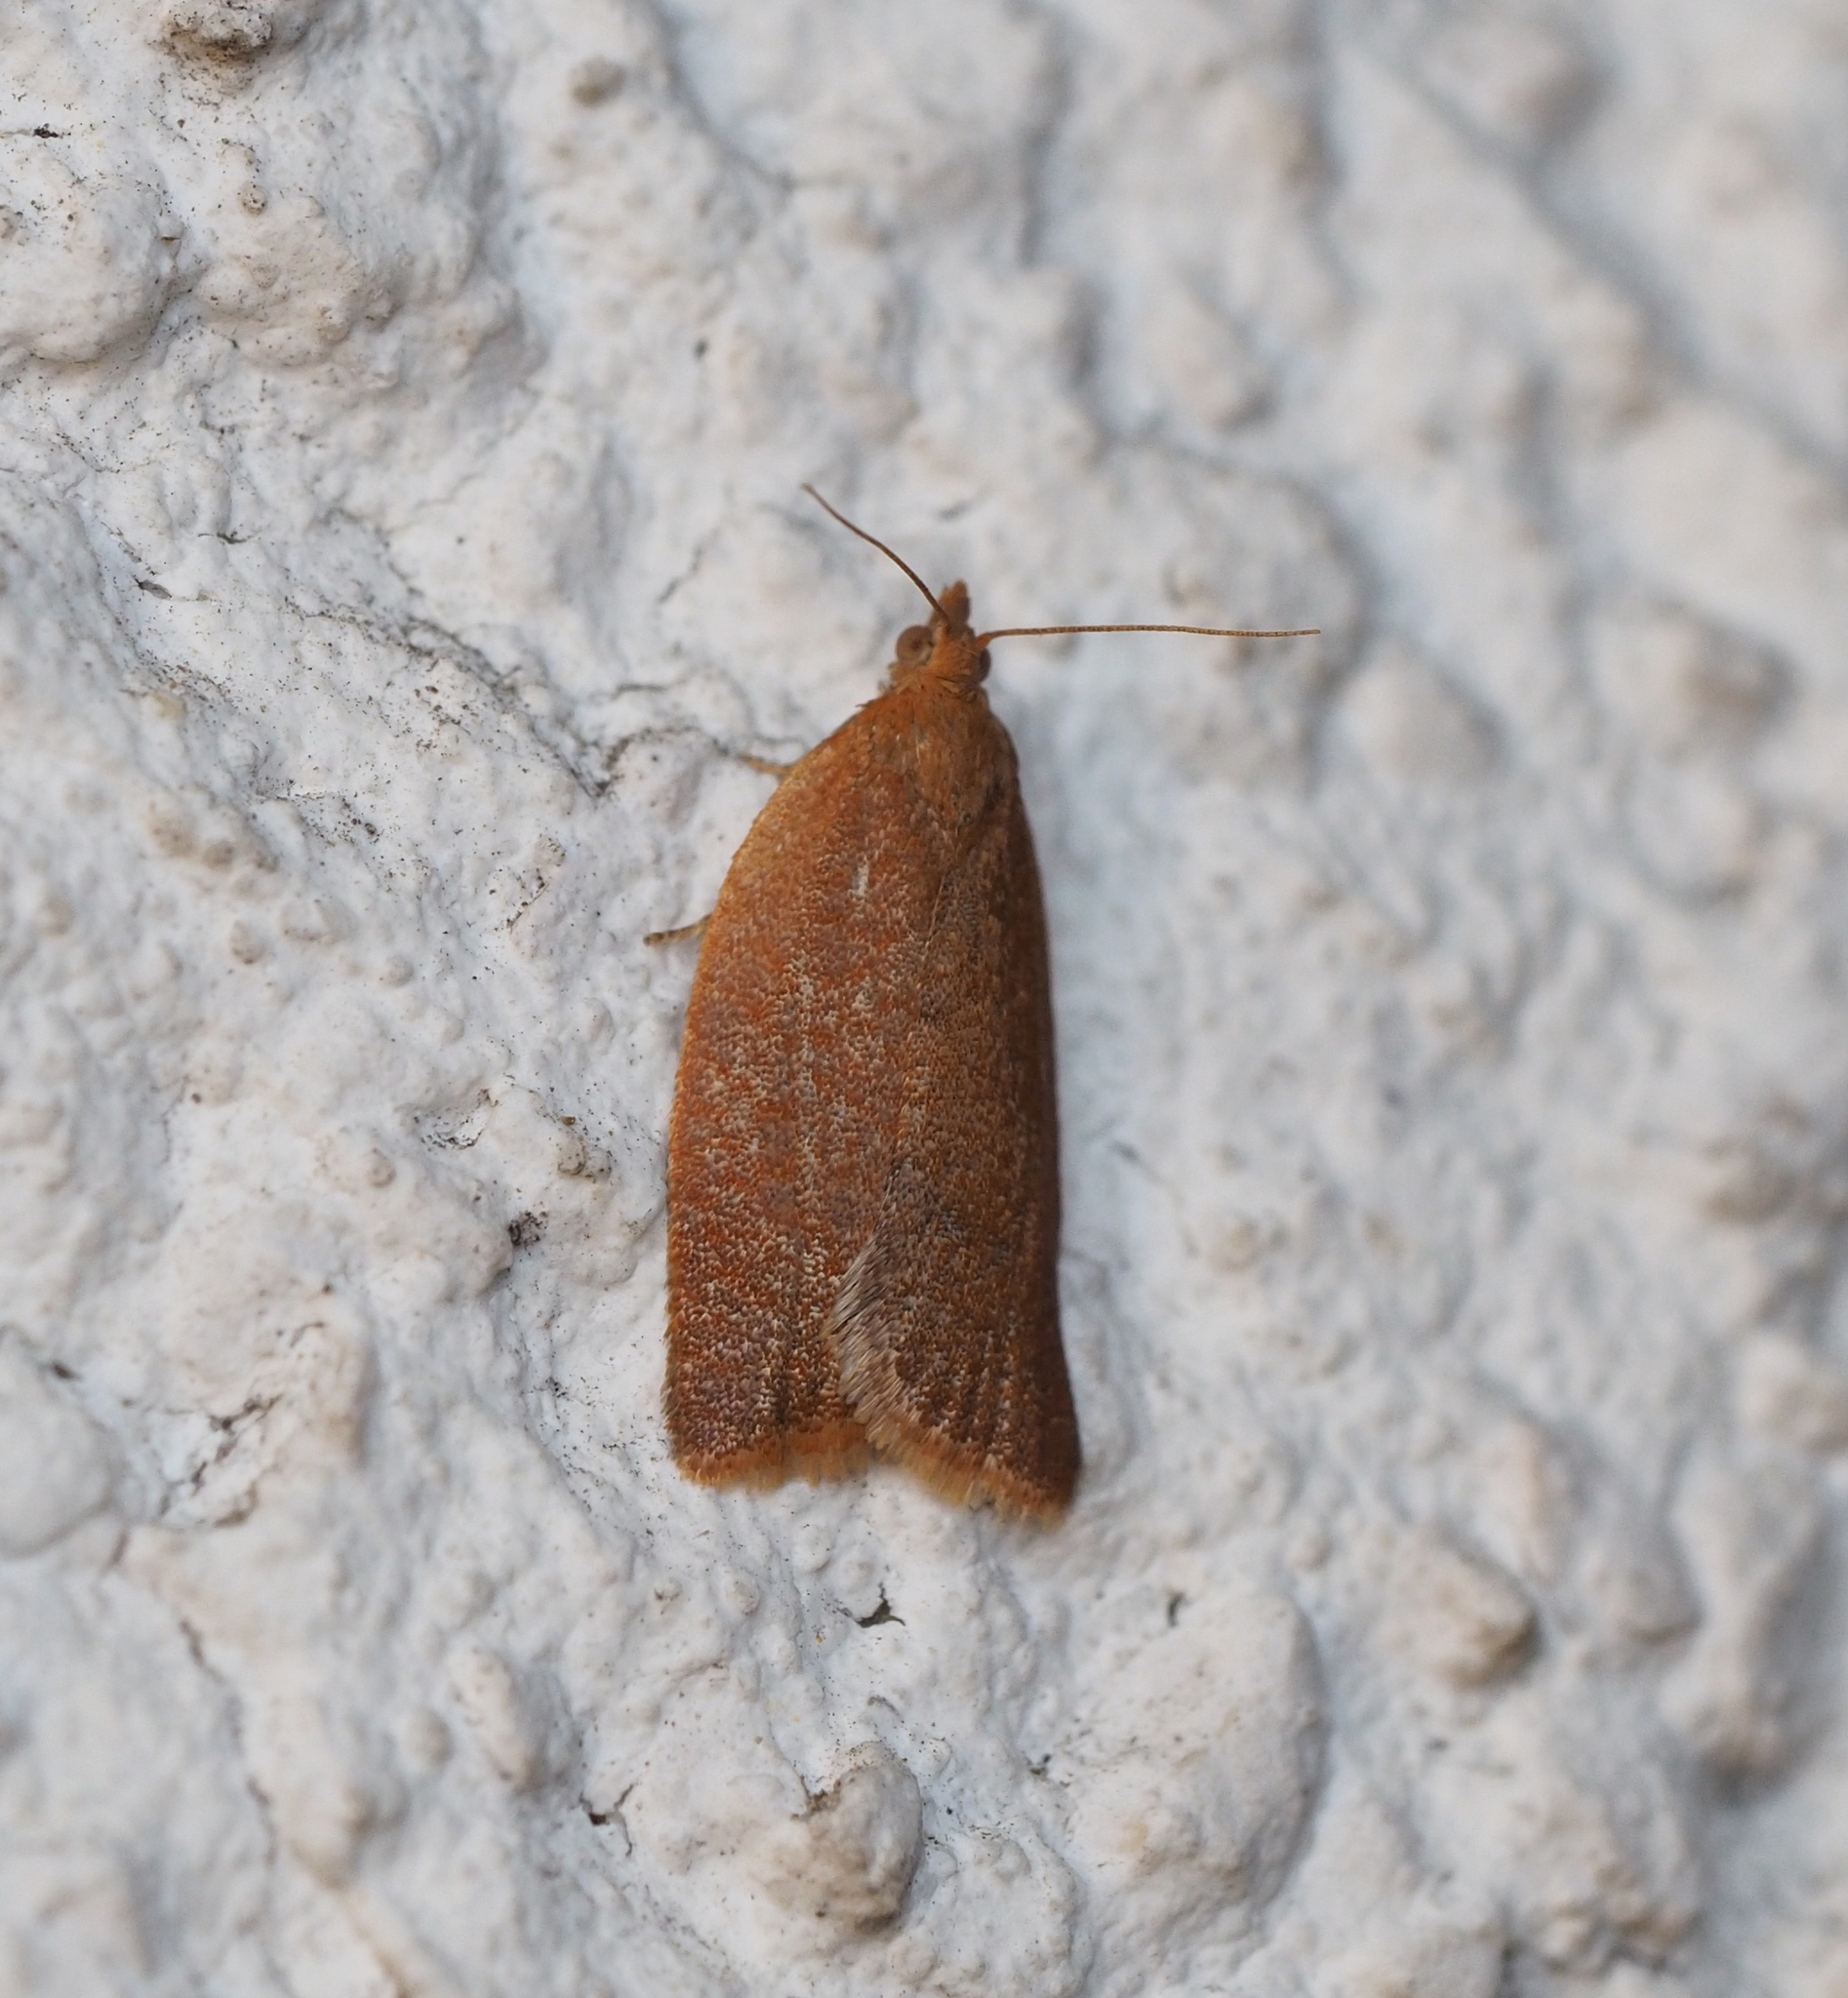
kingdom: Animalia
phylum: Arthropoda
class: Insecta
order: Lepidoptera
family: Tortricidae
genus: Clepsis
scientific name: Clepsis consimilana
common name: Privet tortrix
